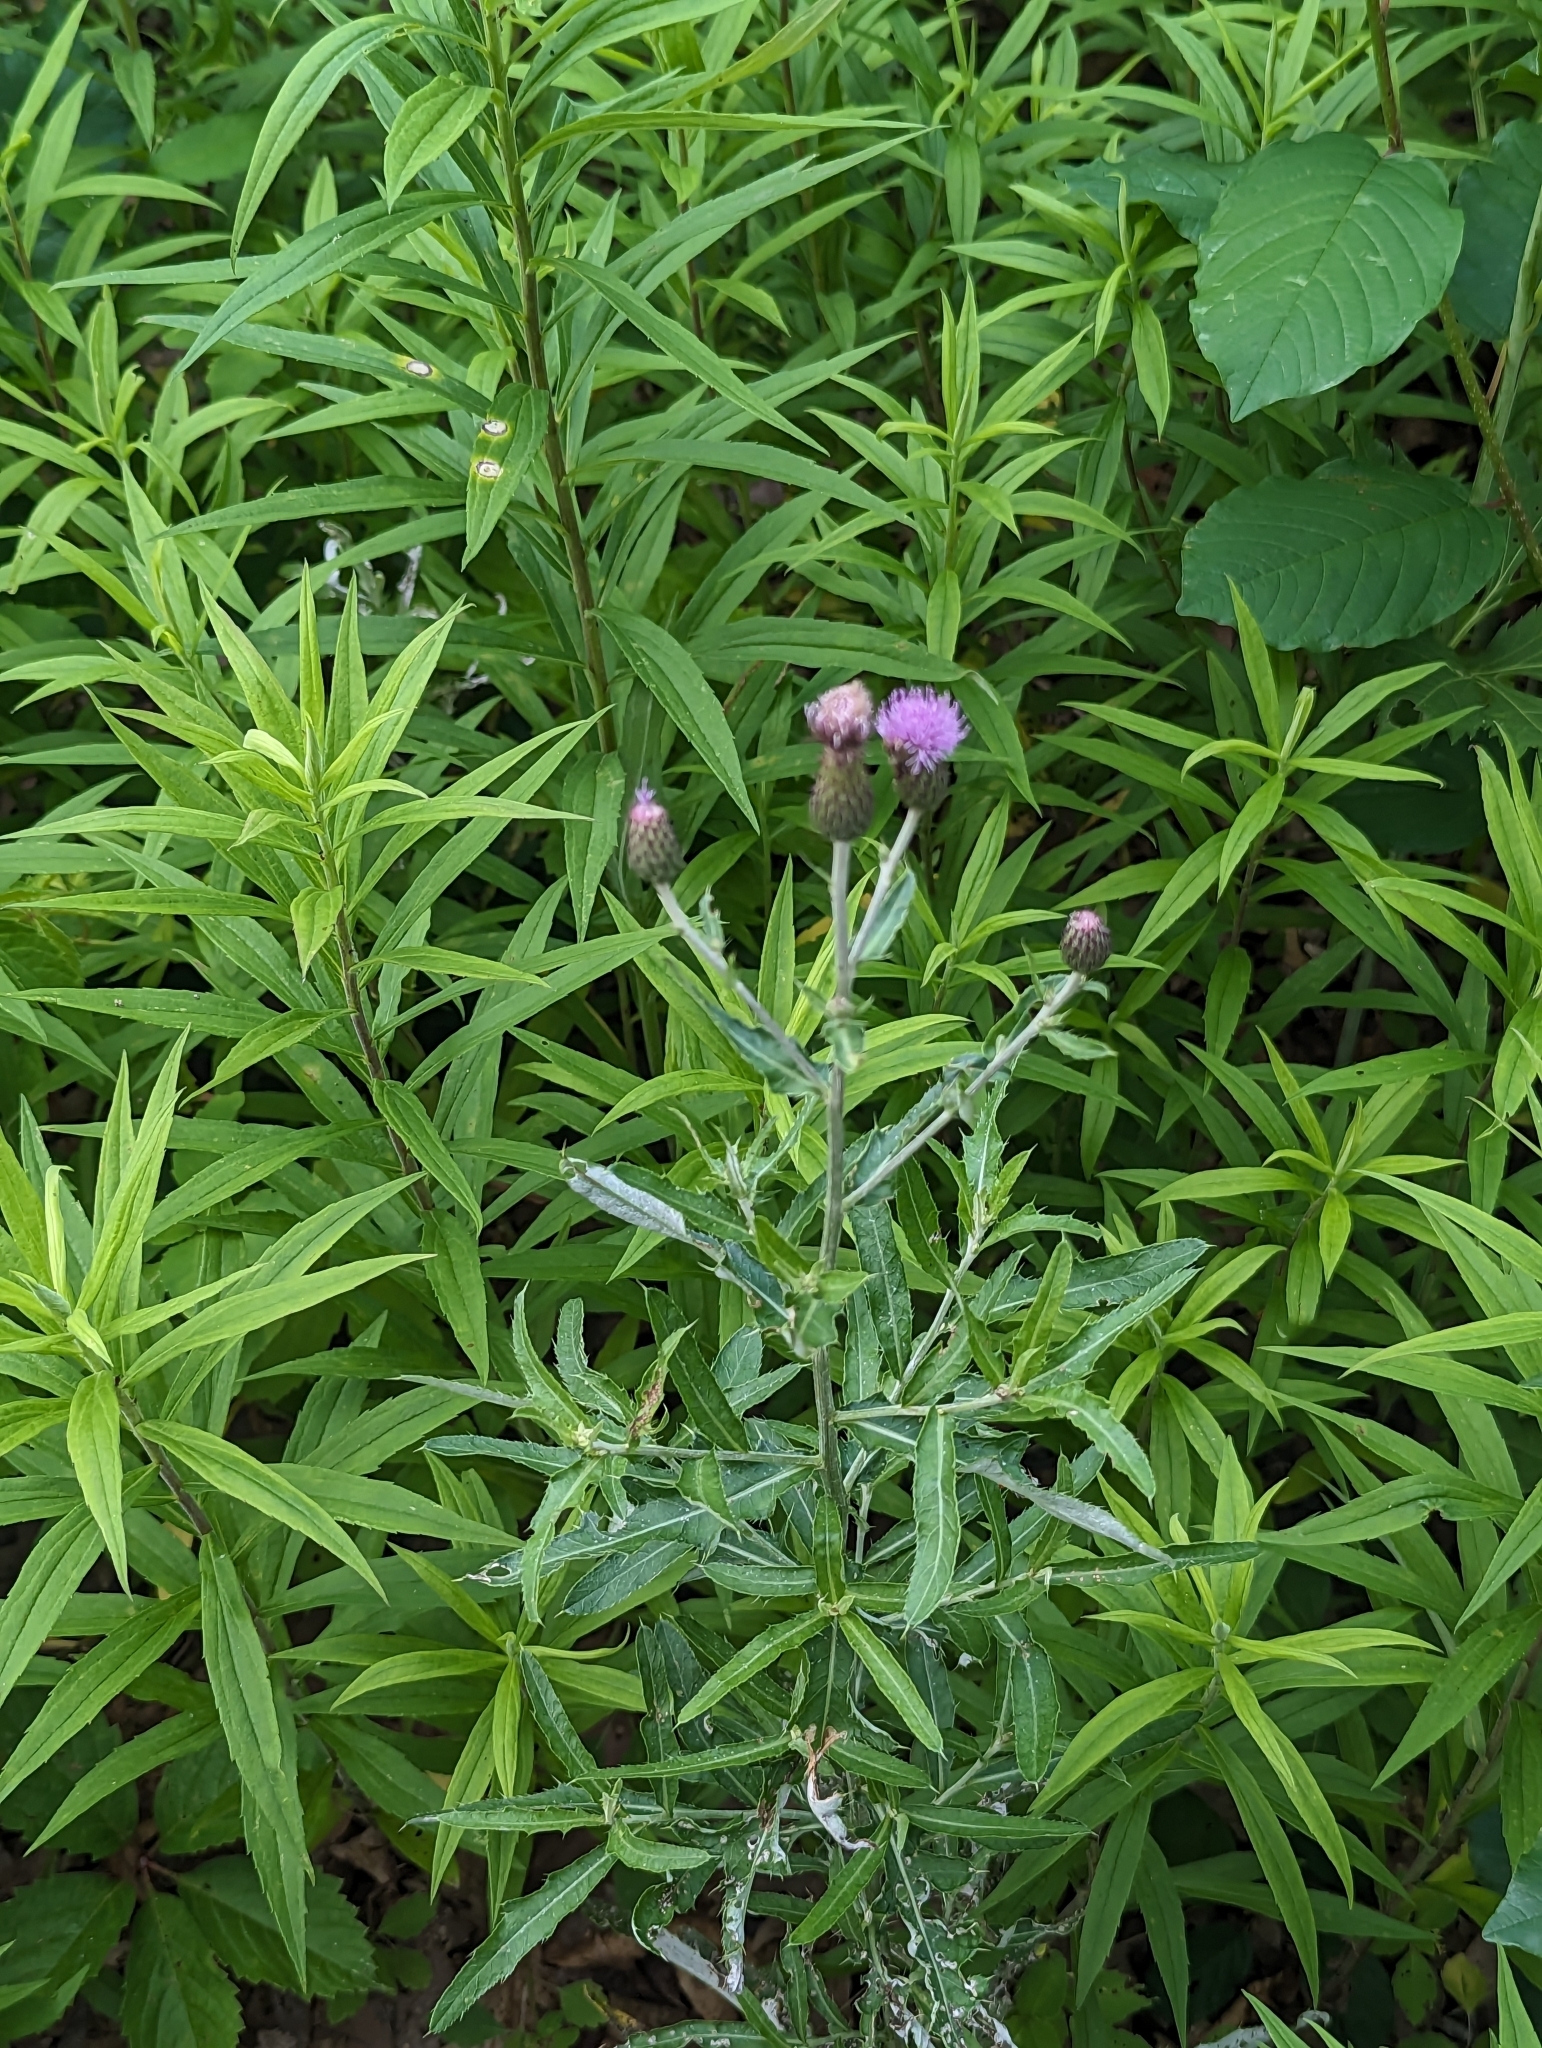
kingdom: Plantae
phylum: Tracheophyta
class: Magnoliopsida
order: Asterales
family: Asteraceae
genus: Cirsium
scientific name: Cirsium arvense
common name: Creeping thistle
